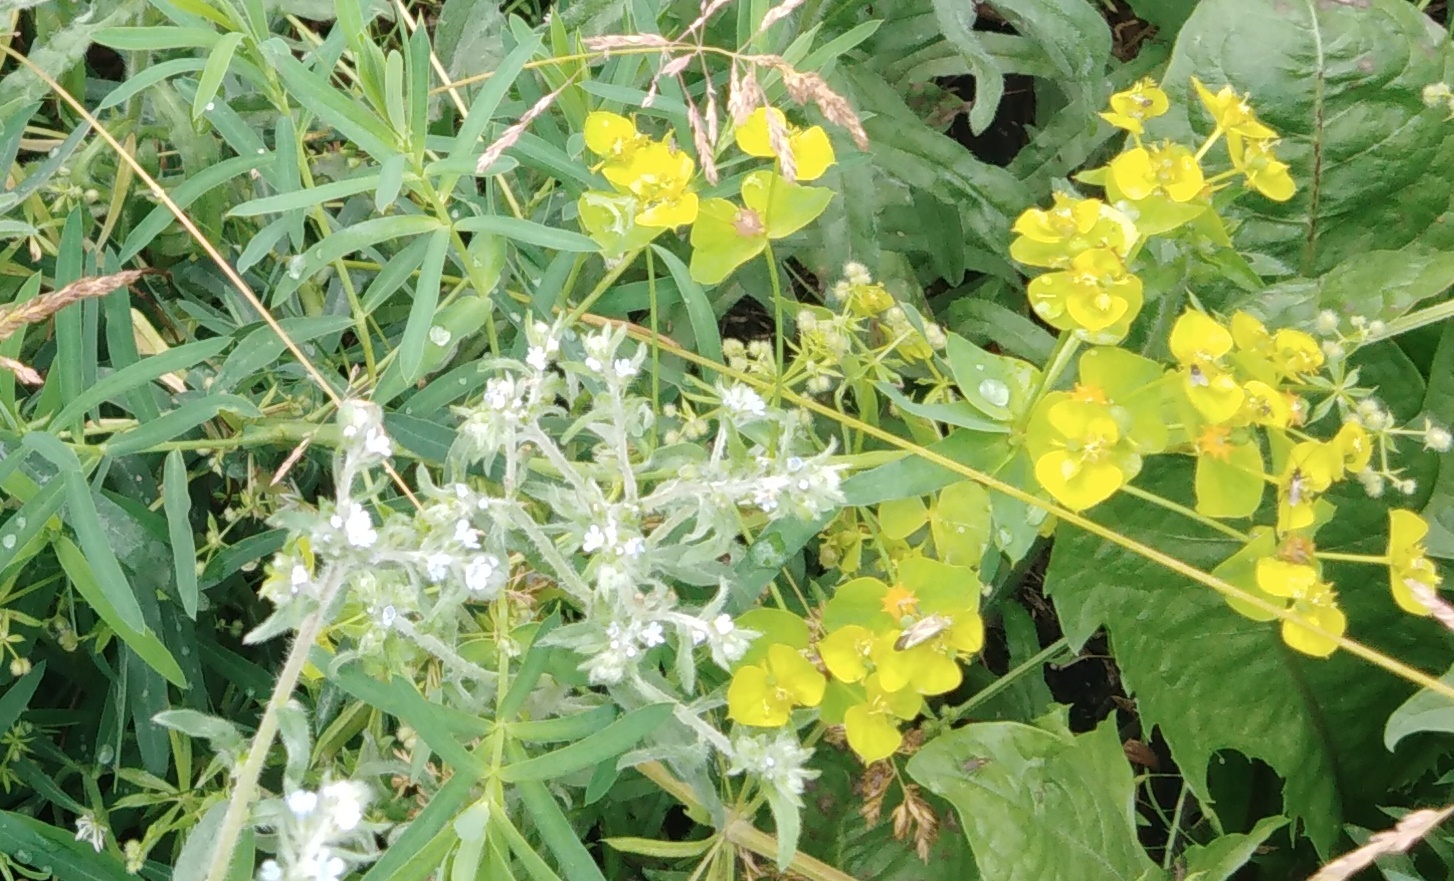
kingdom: Plantae
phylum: Tracheophyta
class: Magnoliopsida
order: Malpighiales
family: Euphorbiaceae
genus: Euphorbia
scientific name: Euphorbia virgata
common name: Leafy spurge
